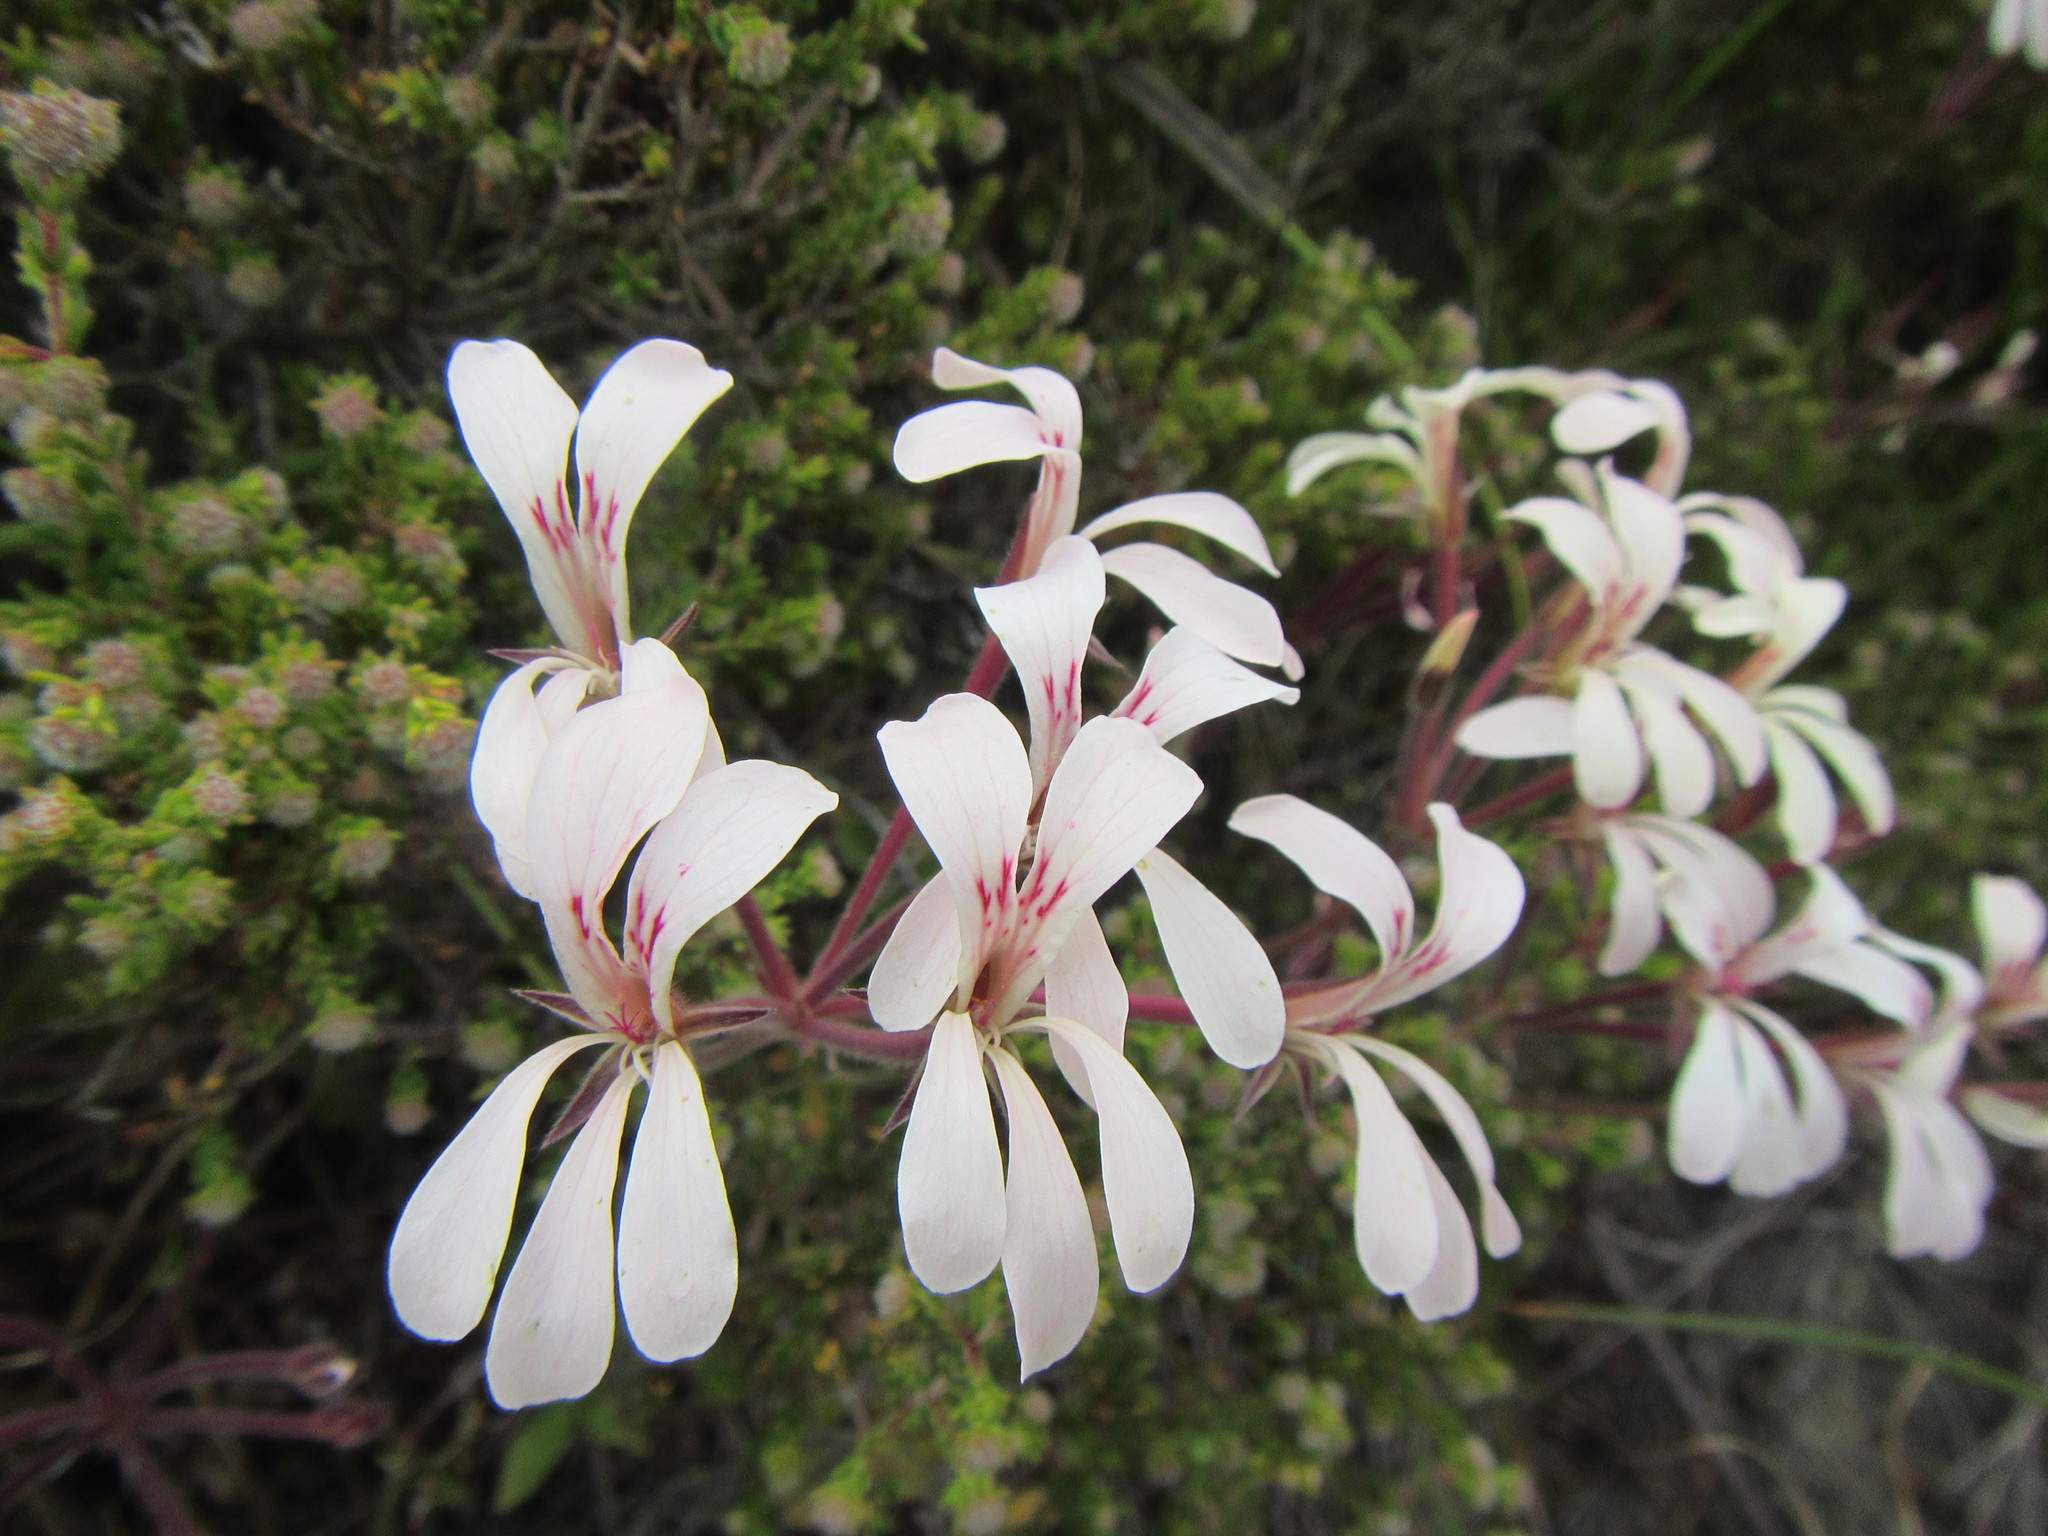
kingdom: Plantae
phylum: Tracheophyta
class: Magnoliopsida
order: Geraniales
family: Geraniaceae
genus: Pelargonium
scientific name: Pelargonium pinnatum
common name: Pinnated pelargonium
